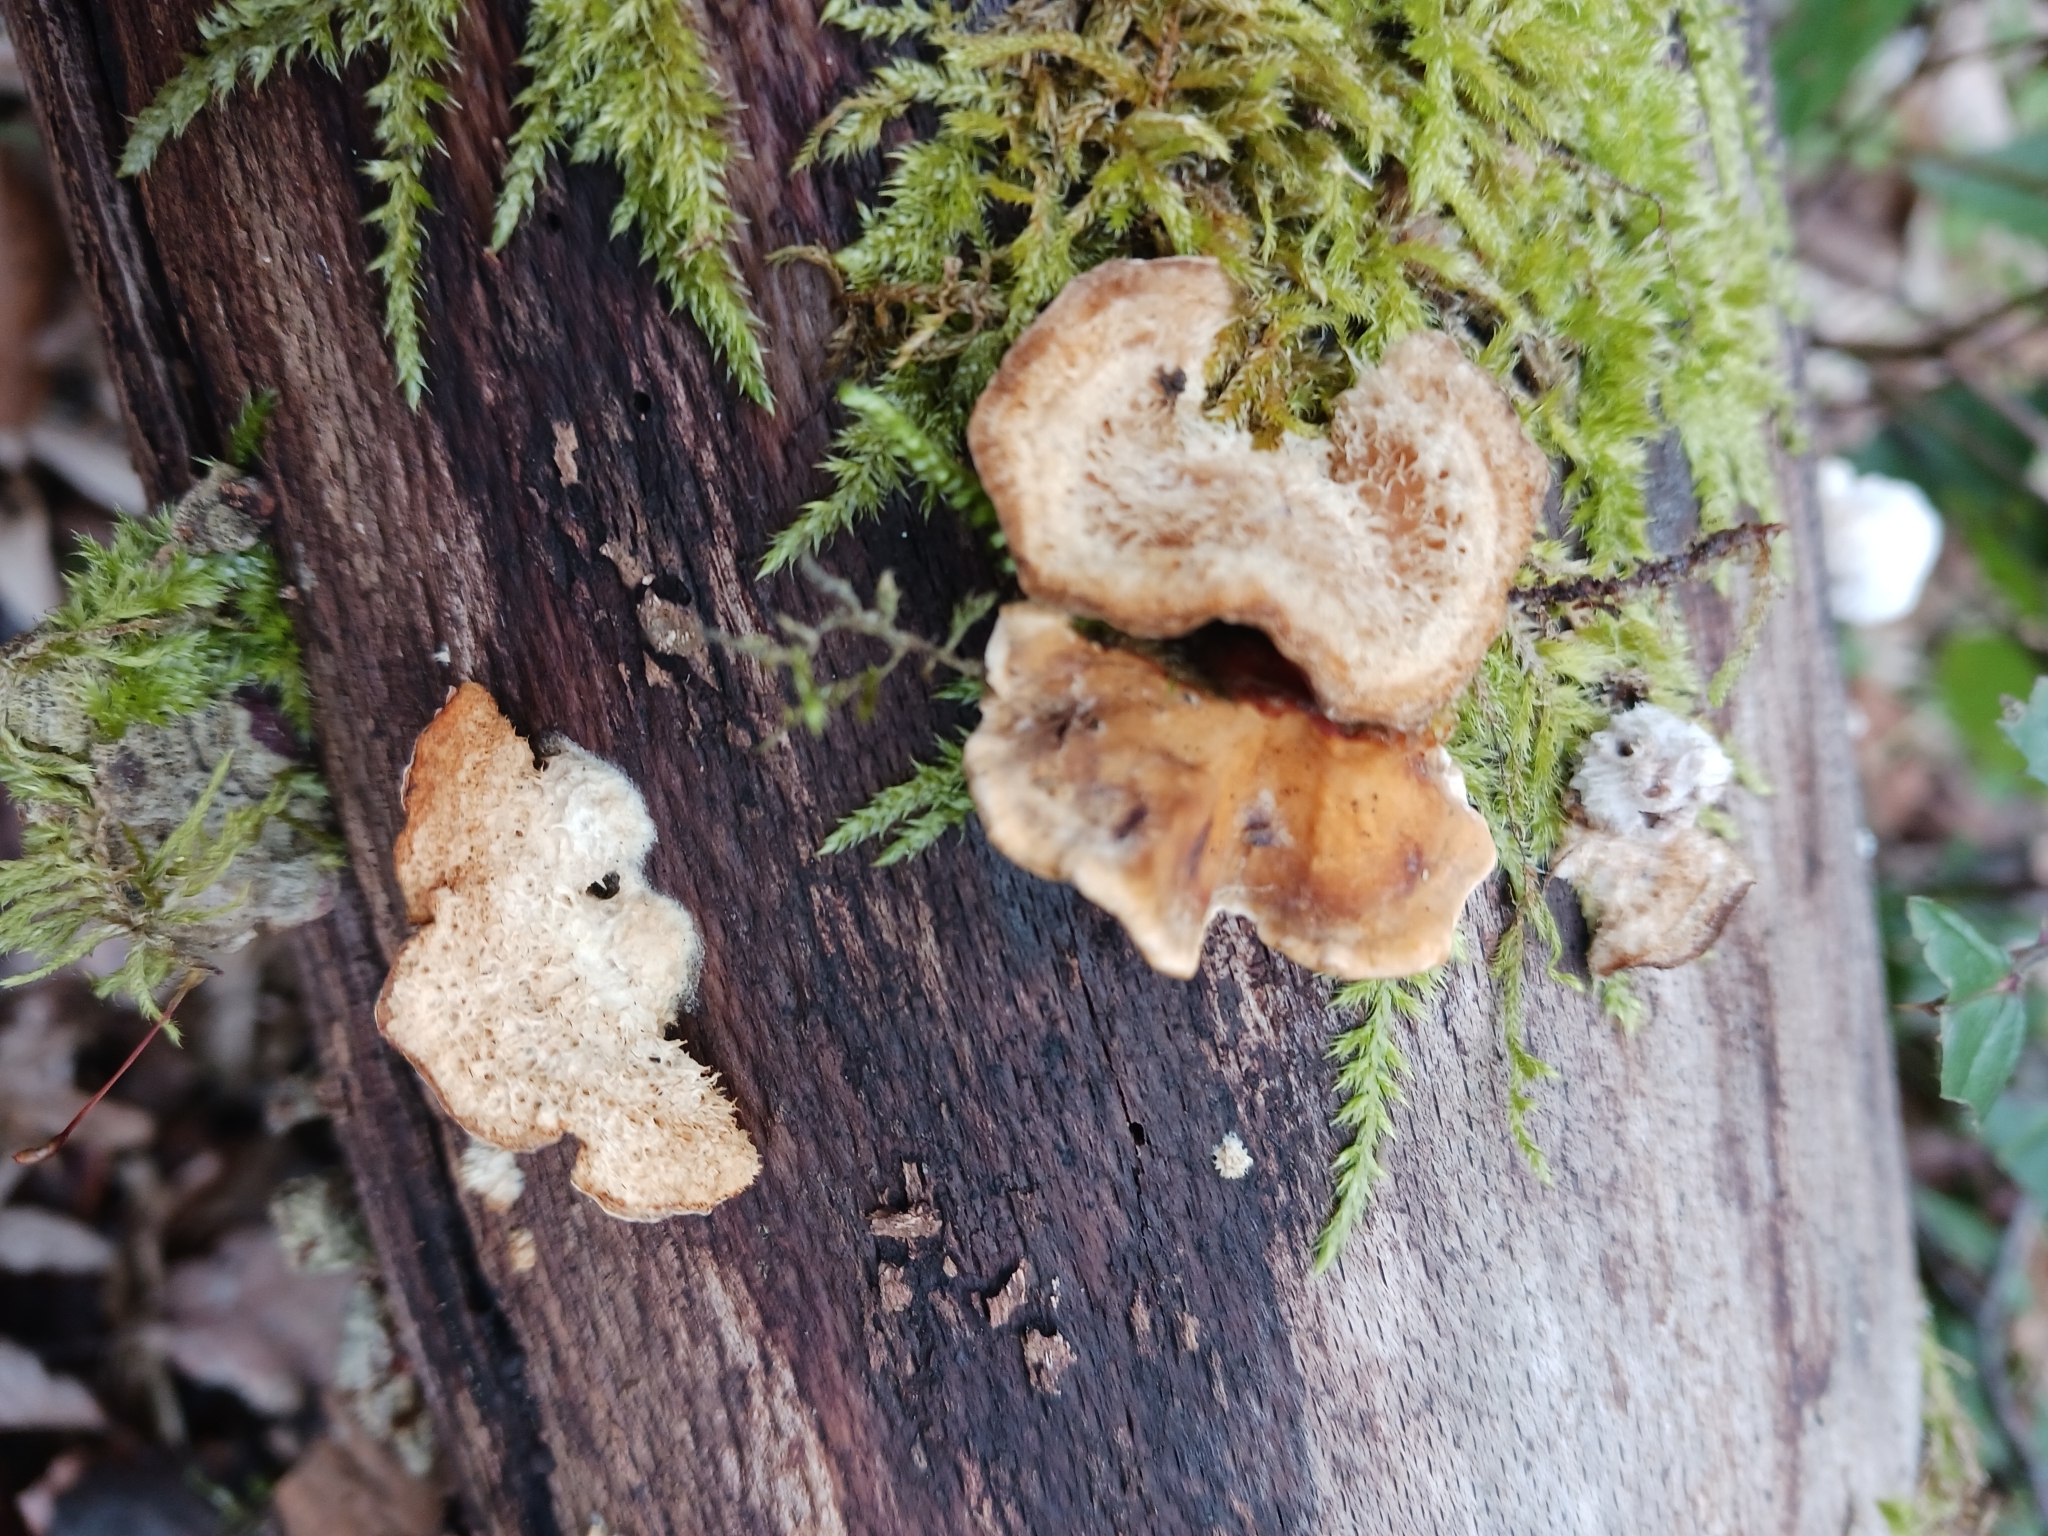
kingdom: Fungi
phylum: Basidiomycota
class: Agaricomycetes
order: Russulales
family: Stereaceae
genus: Stereum
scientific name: Stereum hirsutum
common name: Hairy curtain crust
